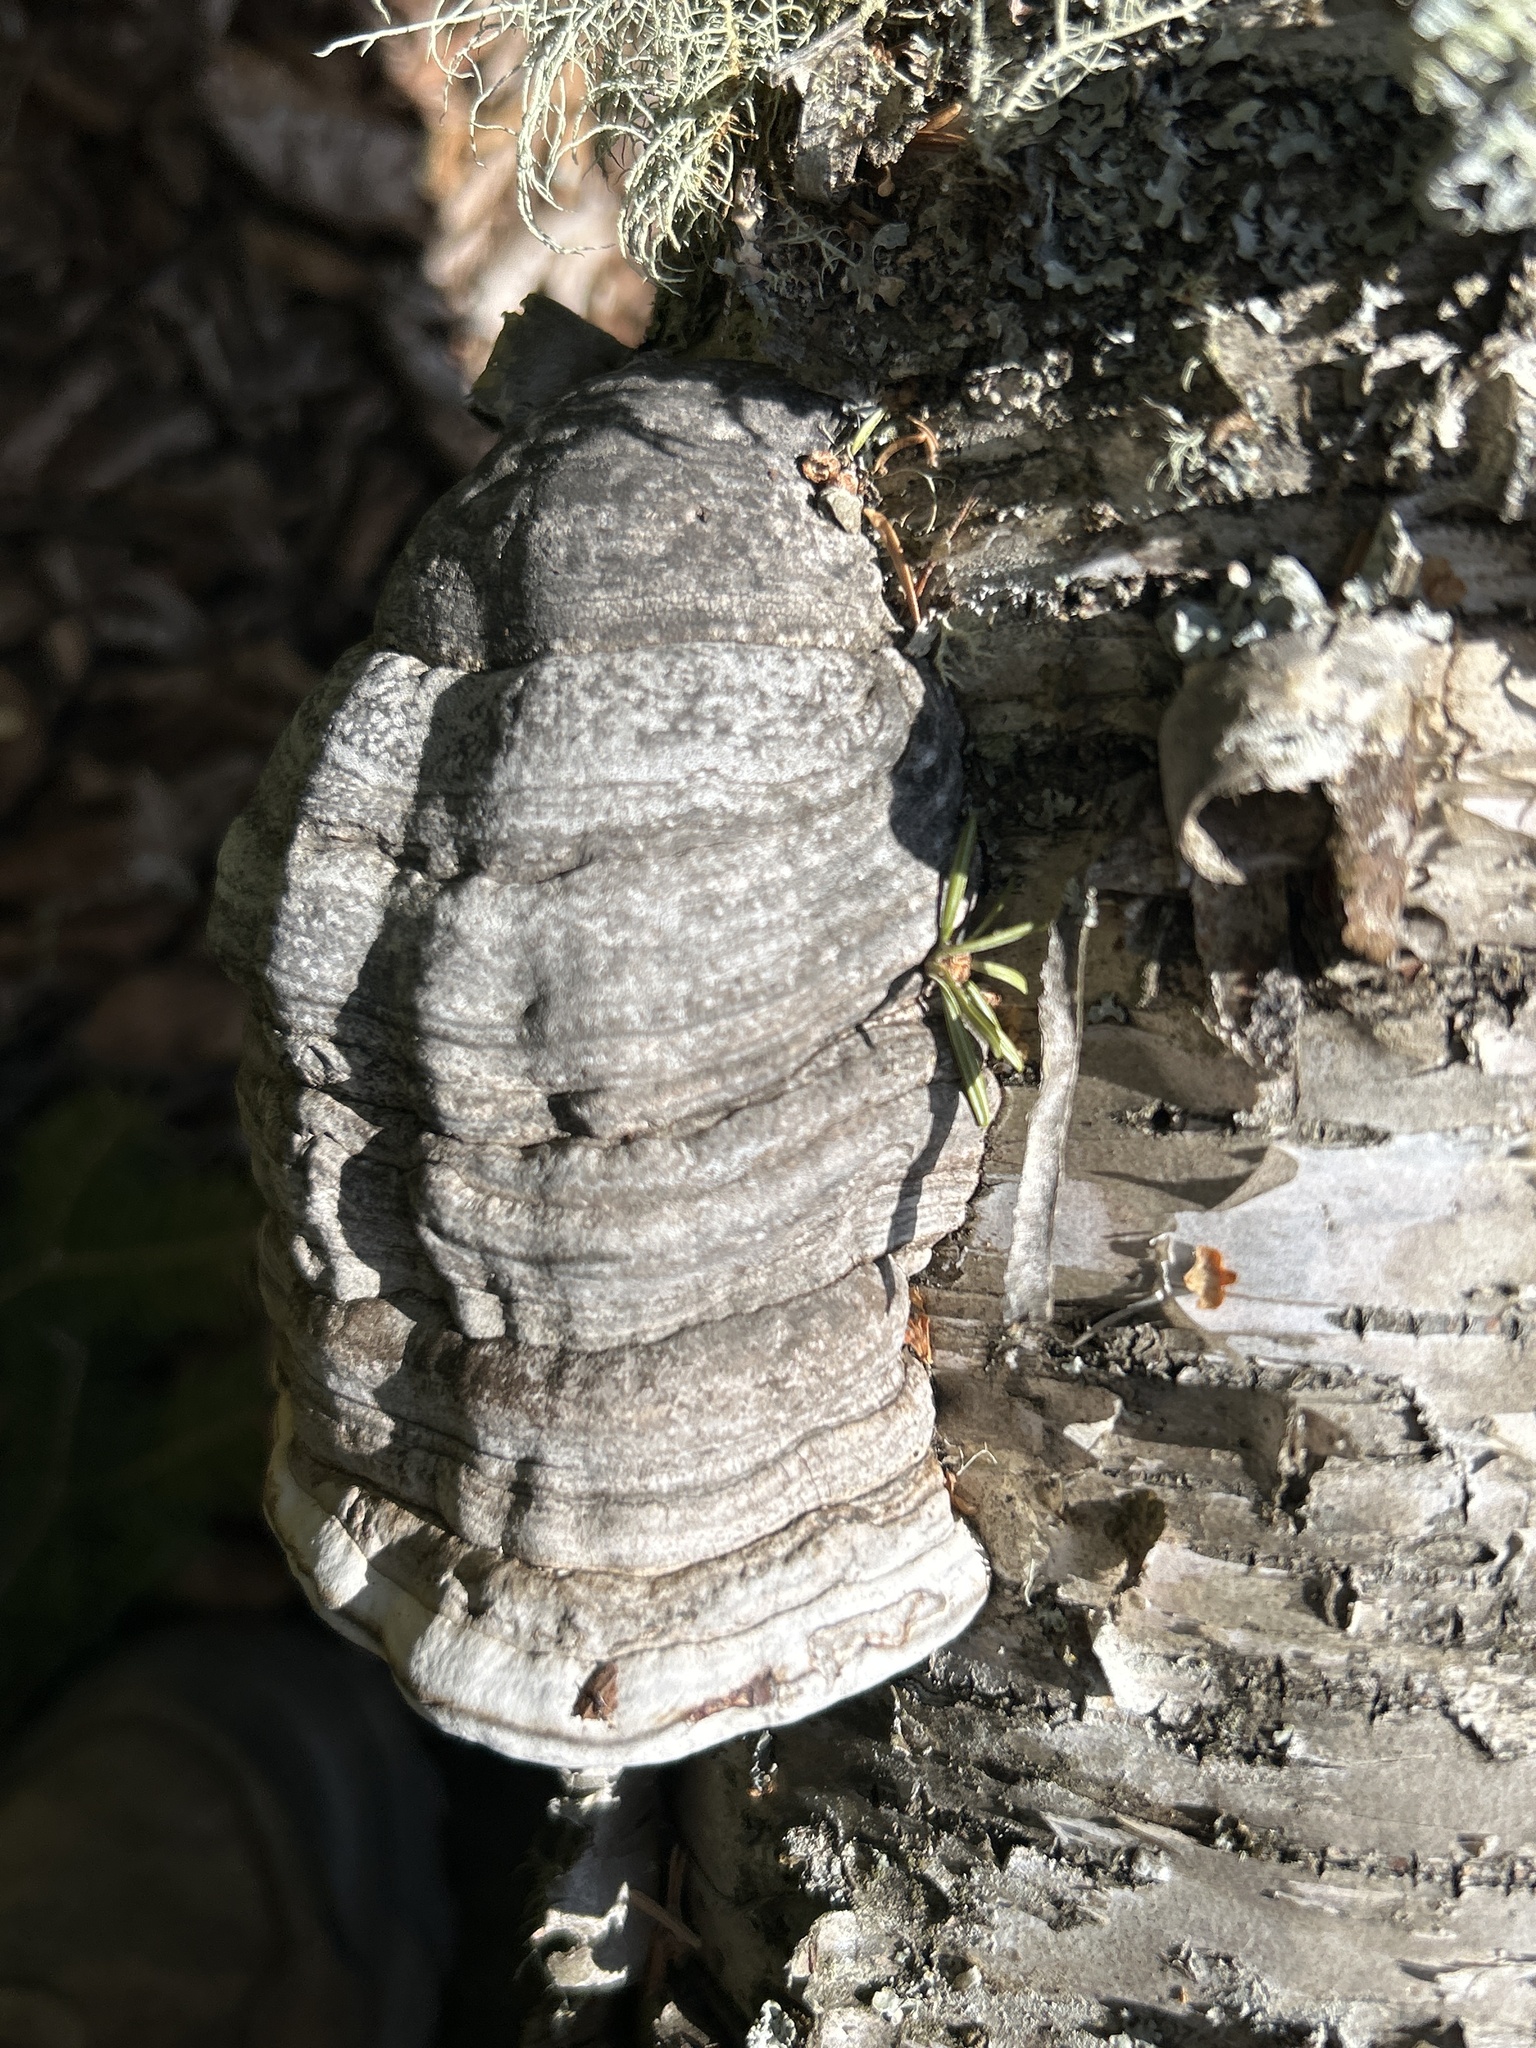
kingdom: Fungi
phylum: Basidiomycota
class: Agaricomycetes
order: Polyporales
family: Polyporaceae
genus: Fomes
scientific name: Fomes fomentarius
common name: Hoof fungus
